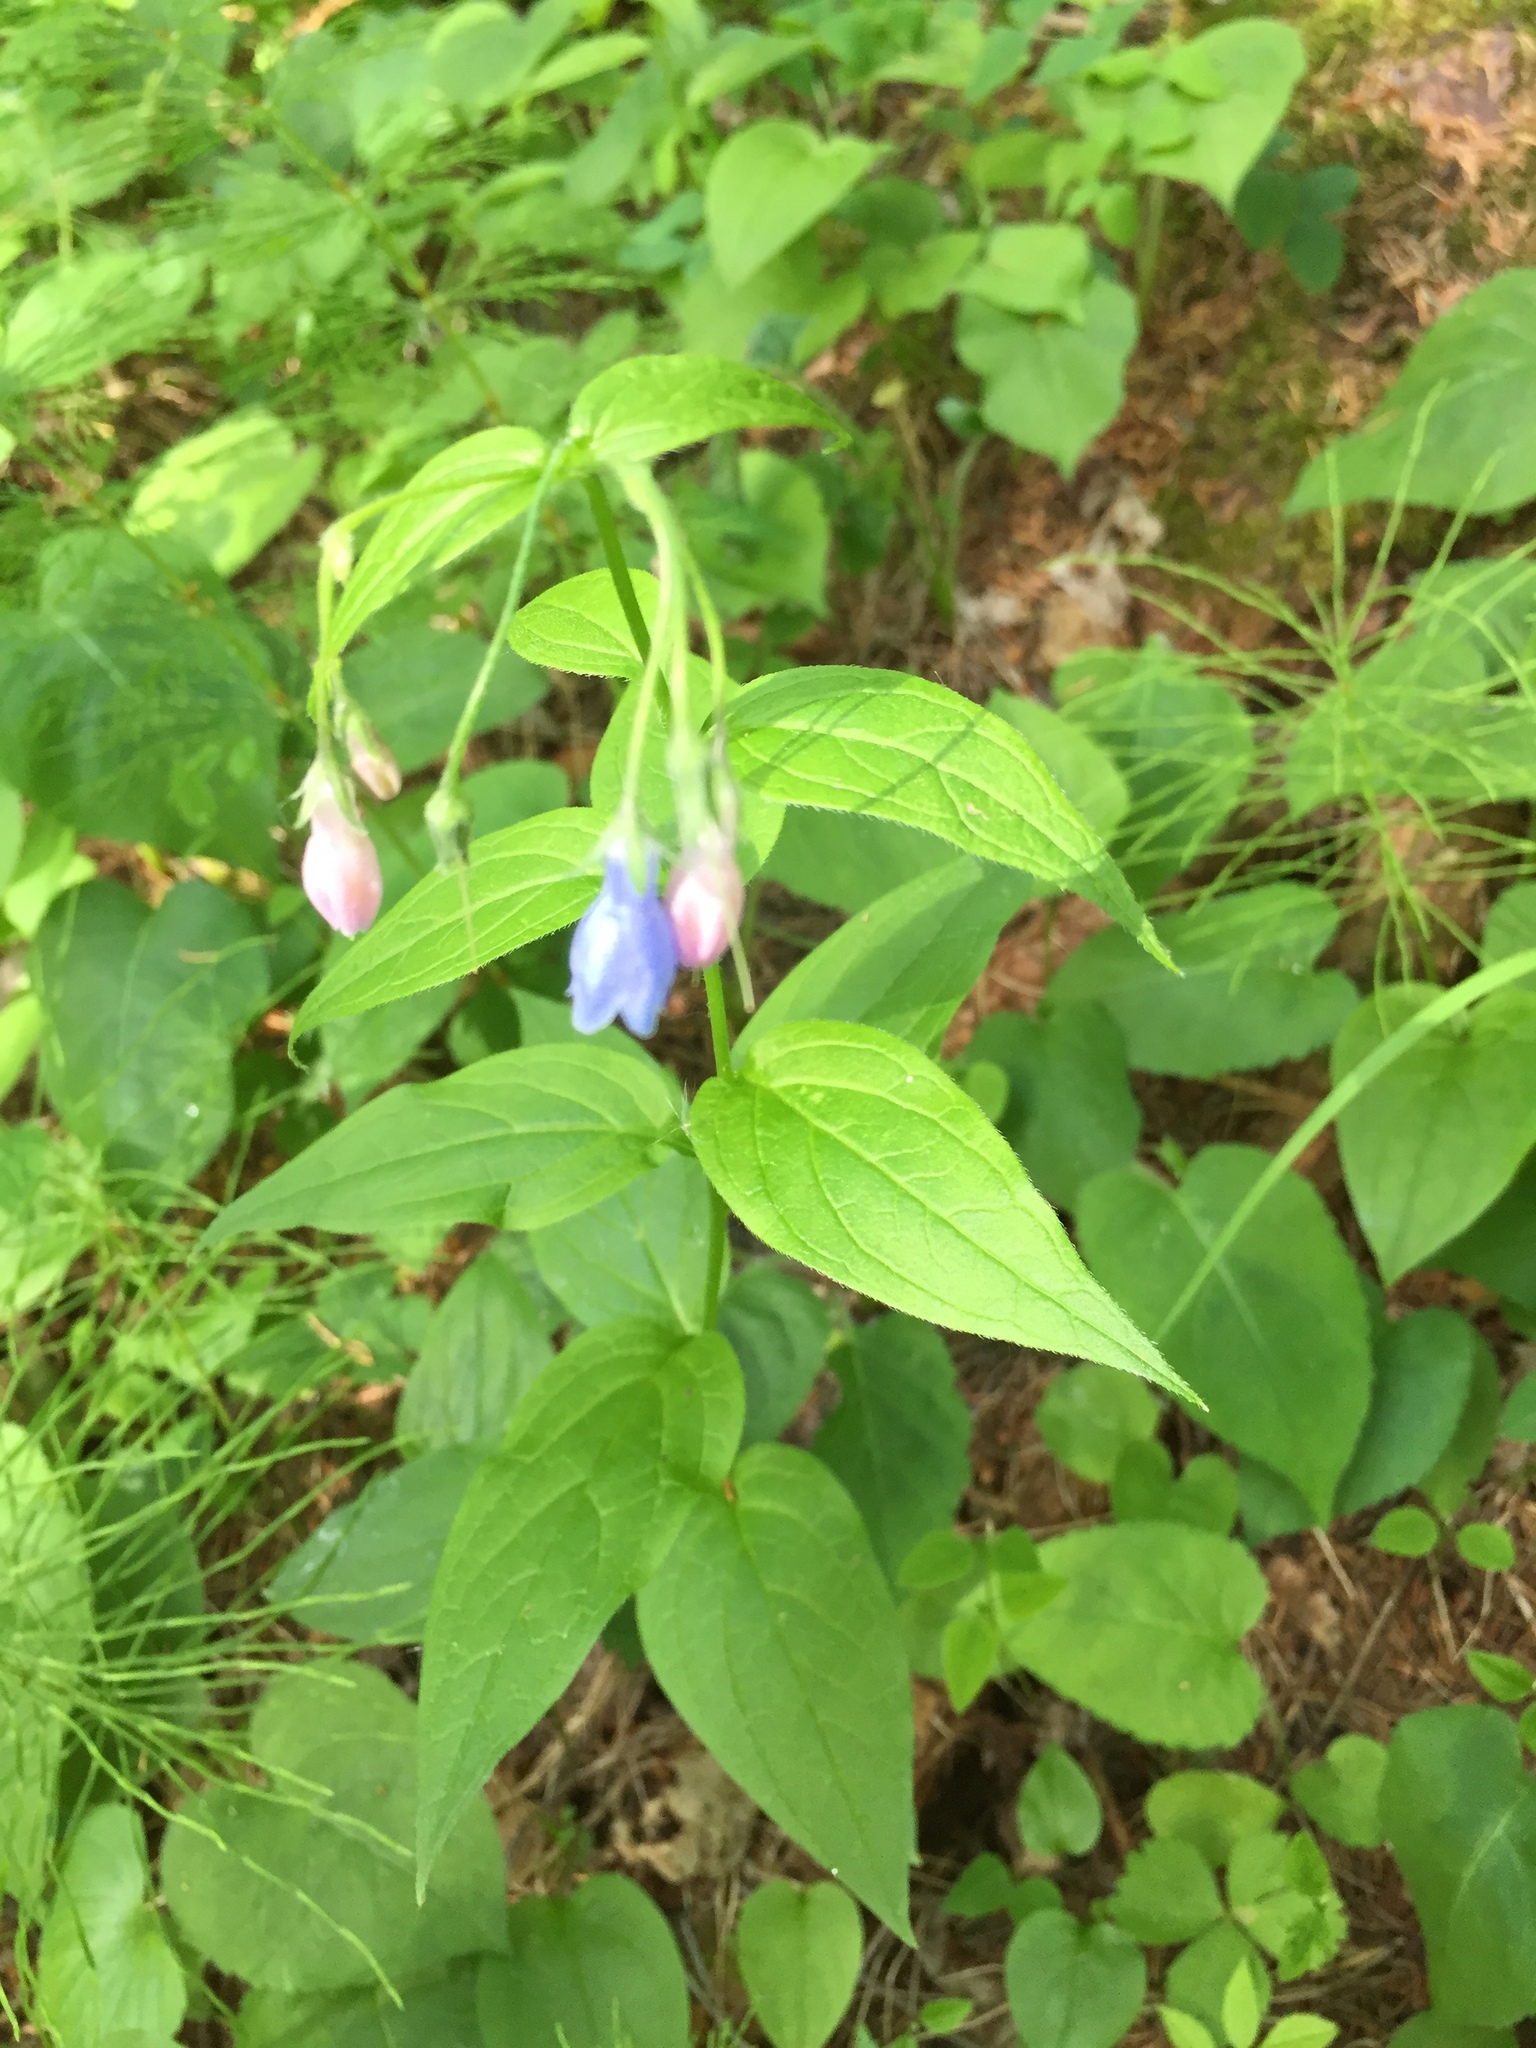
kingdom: Plantae
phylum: Tracheophyta
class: Magnoliopsida
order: Boraginales
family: Boraginaceae
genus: Mertensia
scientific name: Mertensia paniculata
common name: Panicled bluebells
